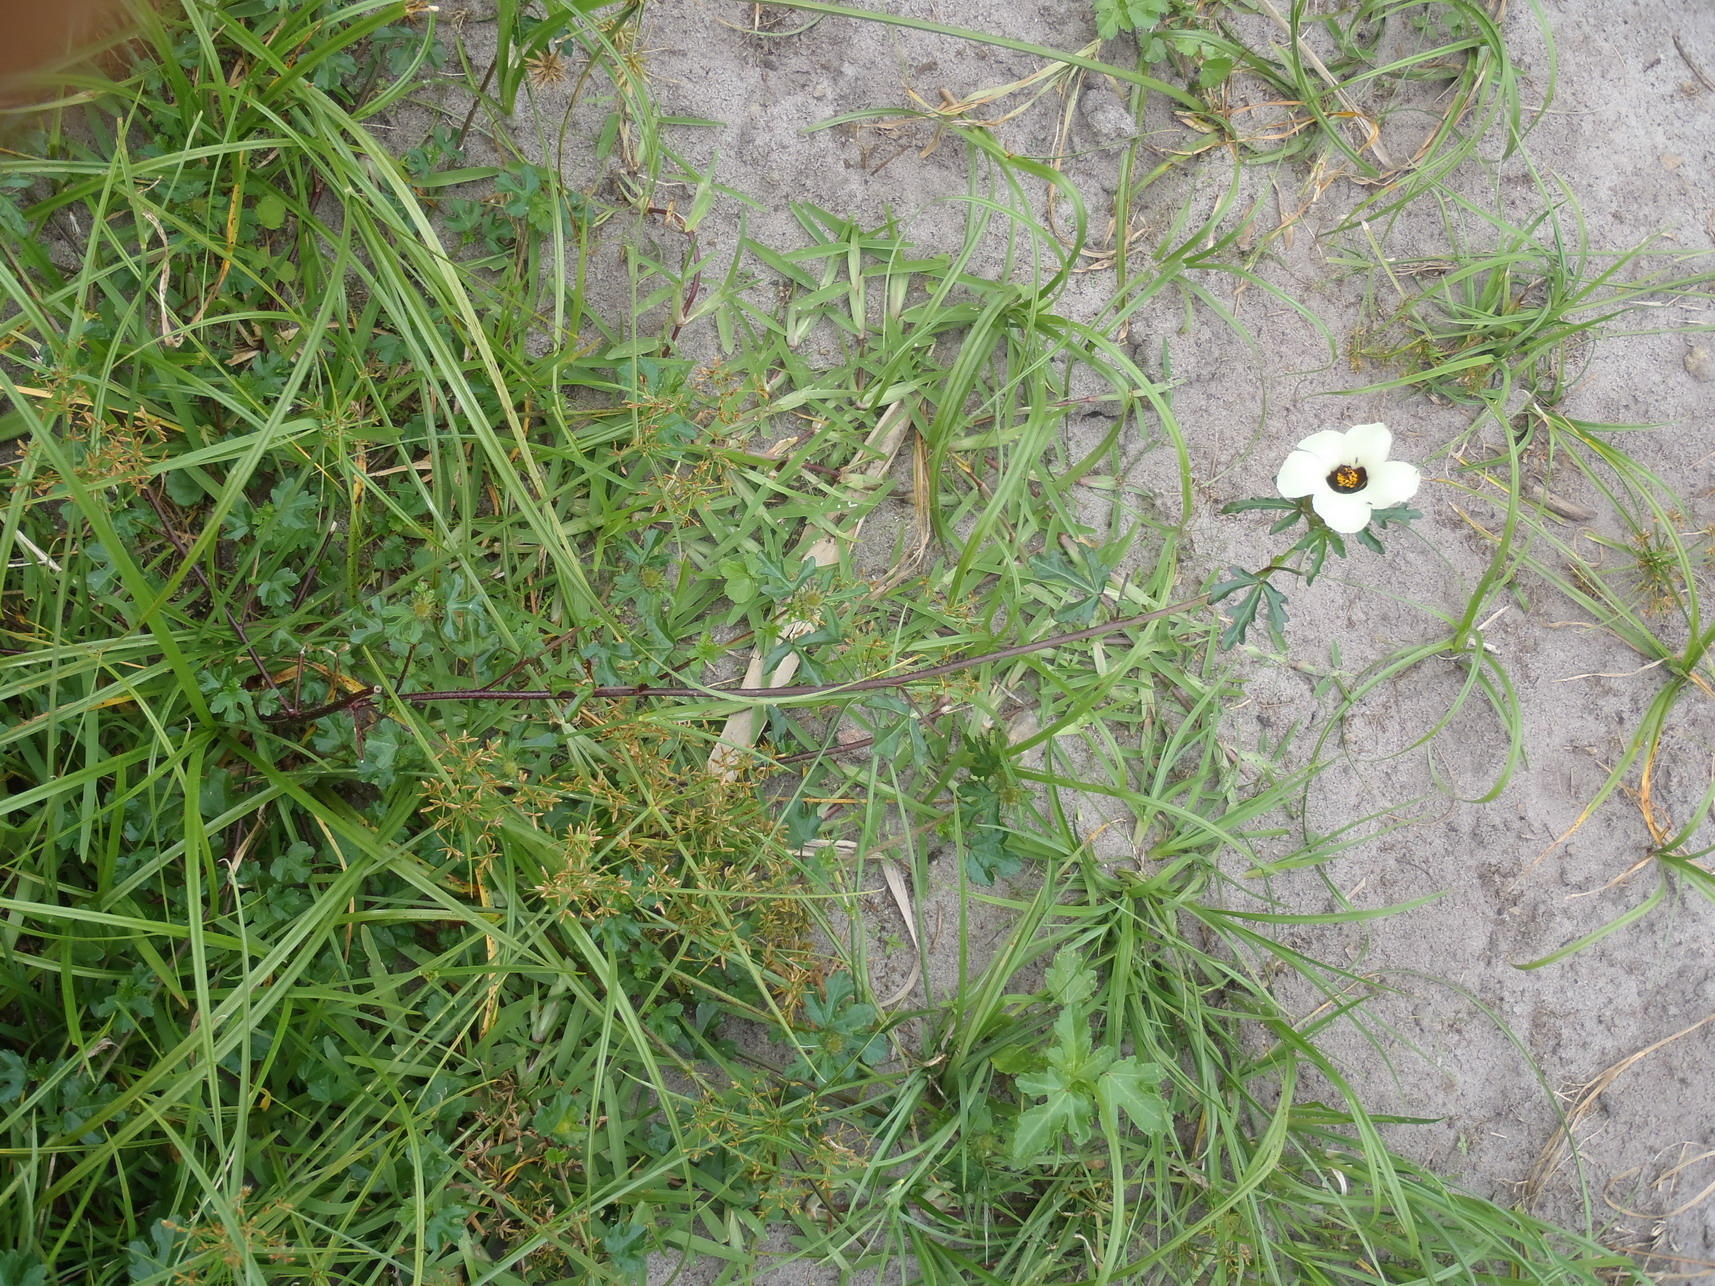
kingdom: Plantae
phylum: Tracheophyta
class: Magnoliopsida
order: Malvales
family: Malvaceae
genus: Hibiscus
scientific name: Hibiscus trionum
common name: Bladder ketmia
